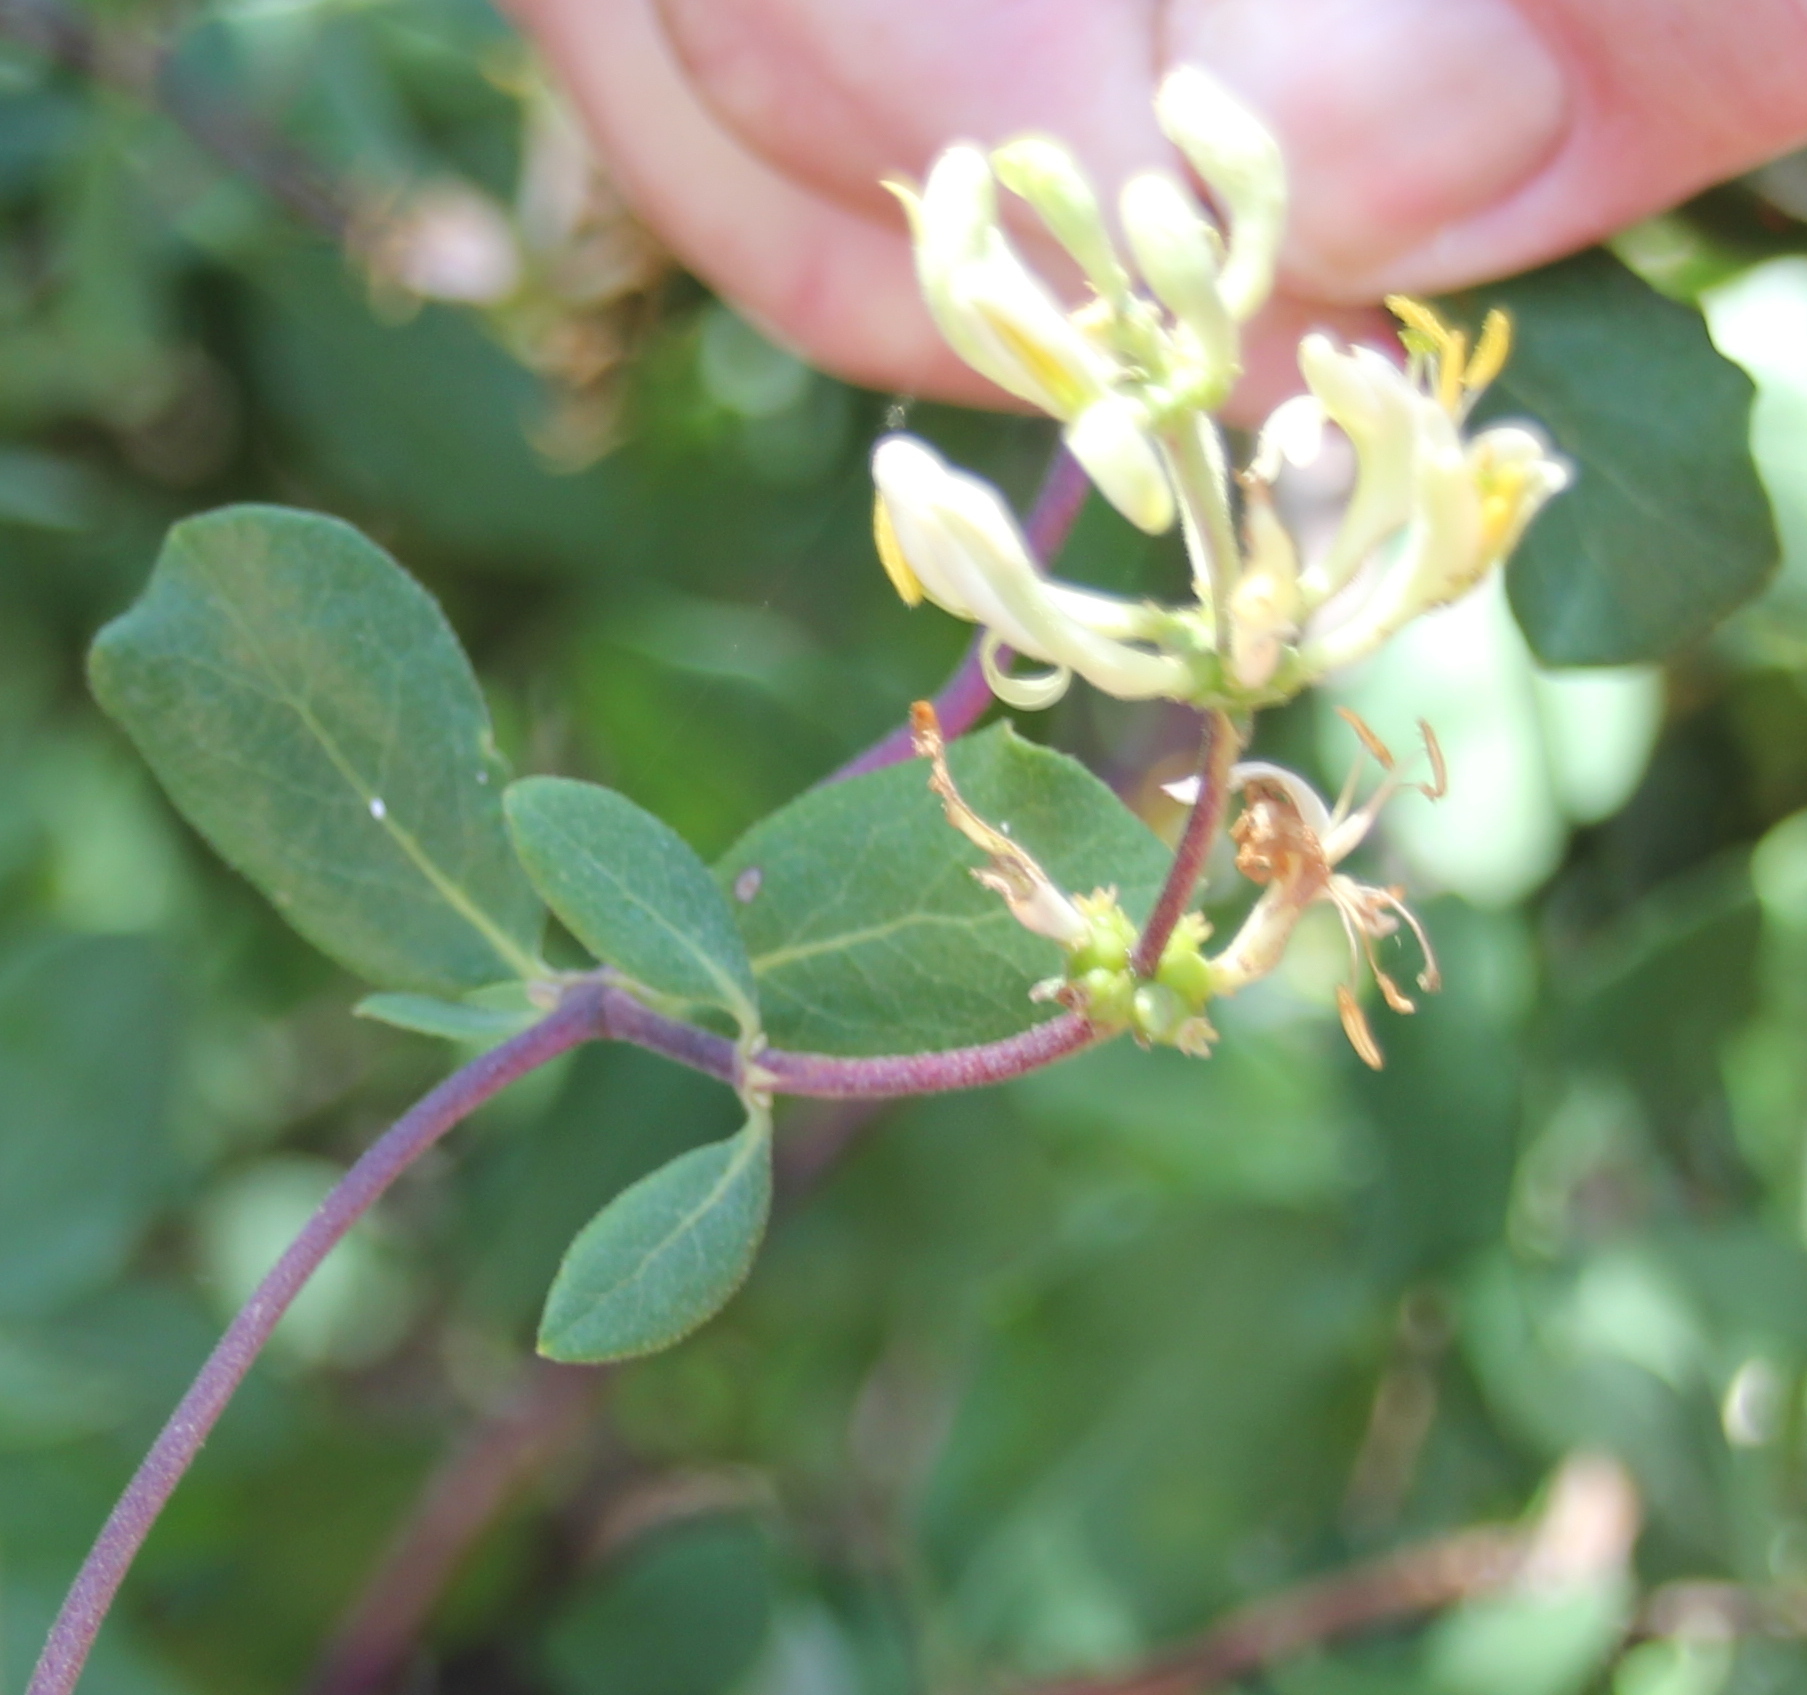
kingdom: Plantae
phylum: Tracheophyta
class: Magnoliopsida
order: Dipsacales
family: Caprifoliaceae
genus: Lonicera
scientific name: Lonicera subspicata
